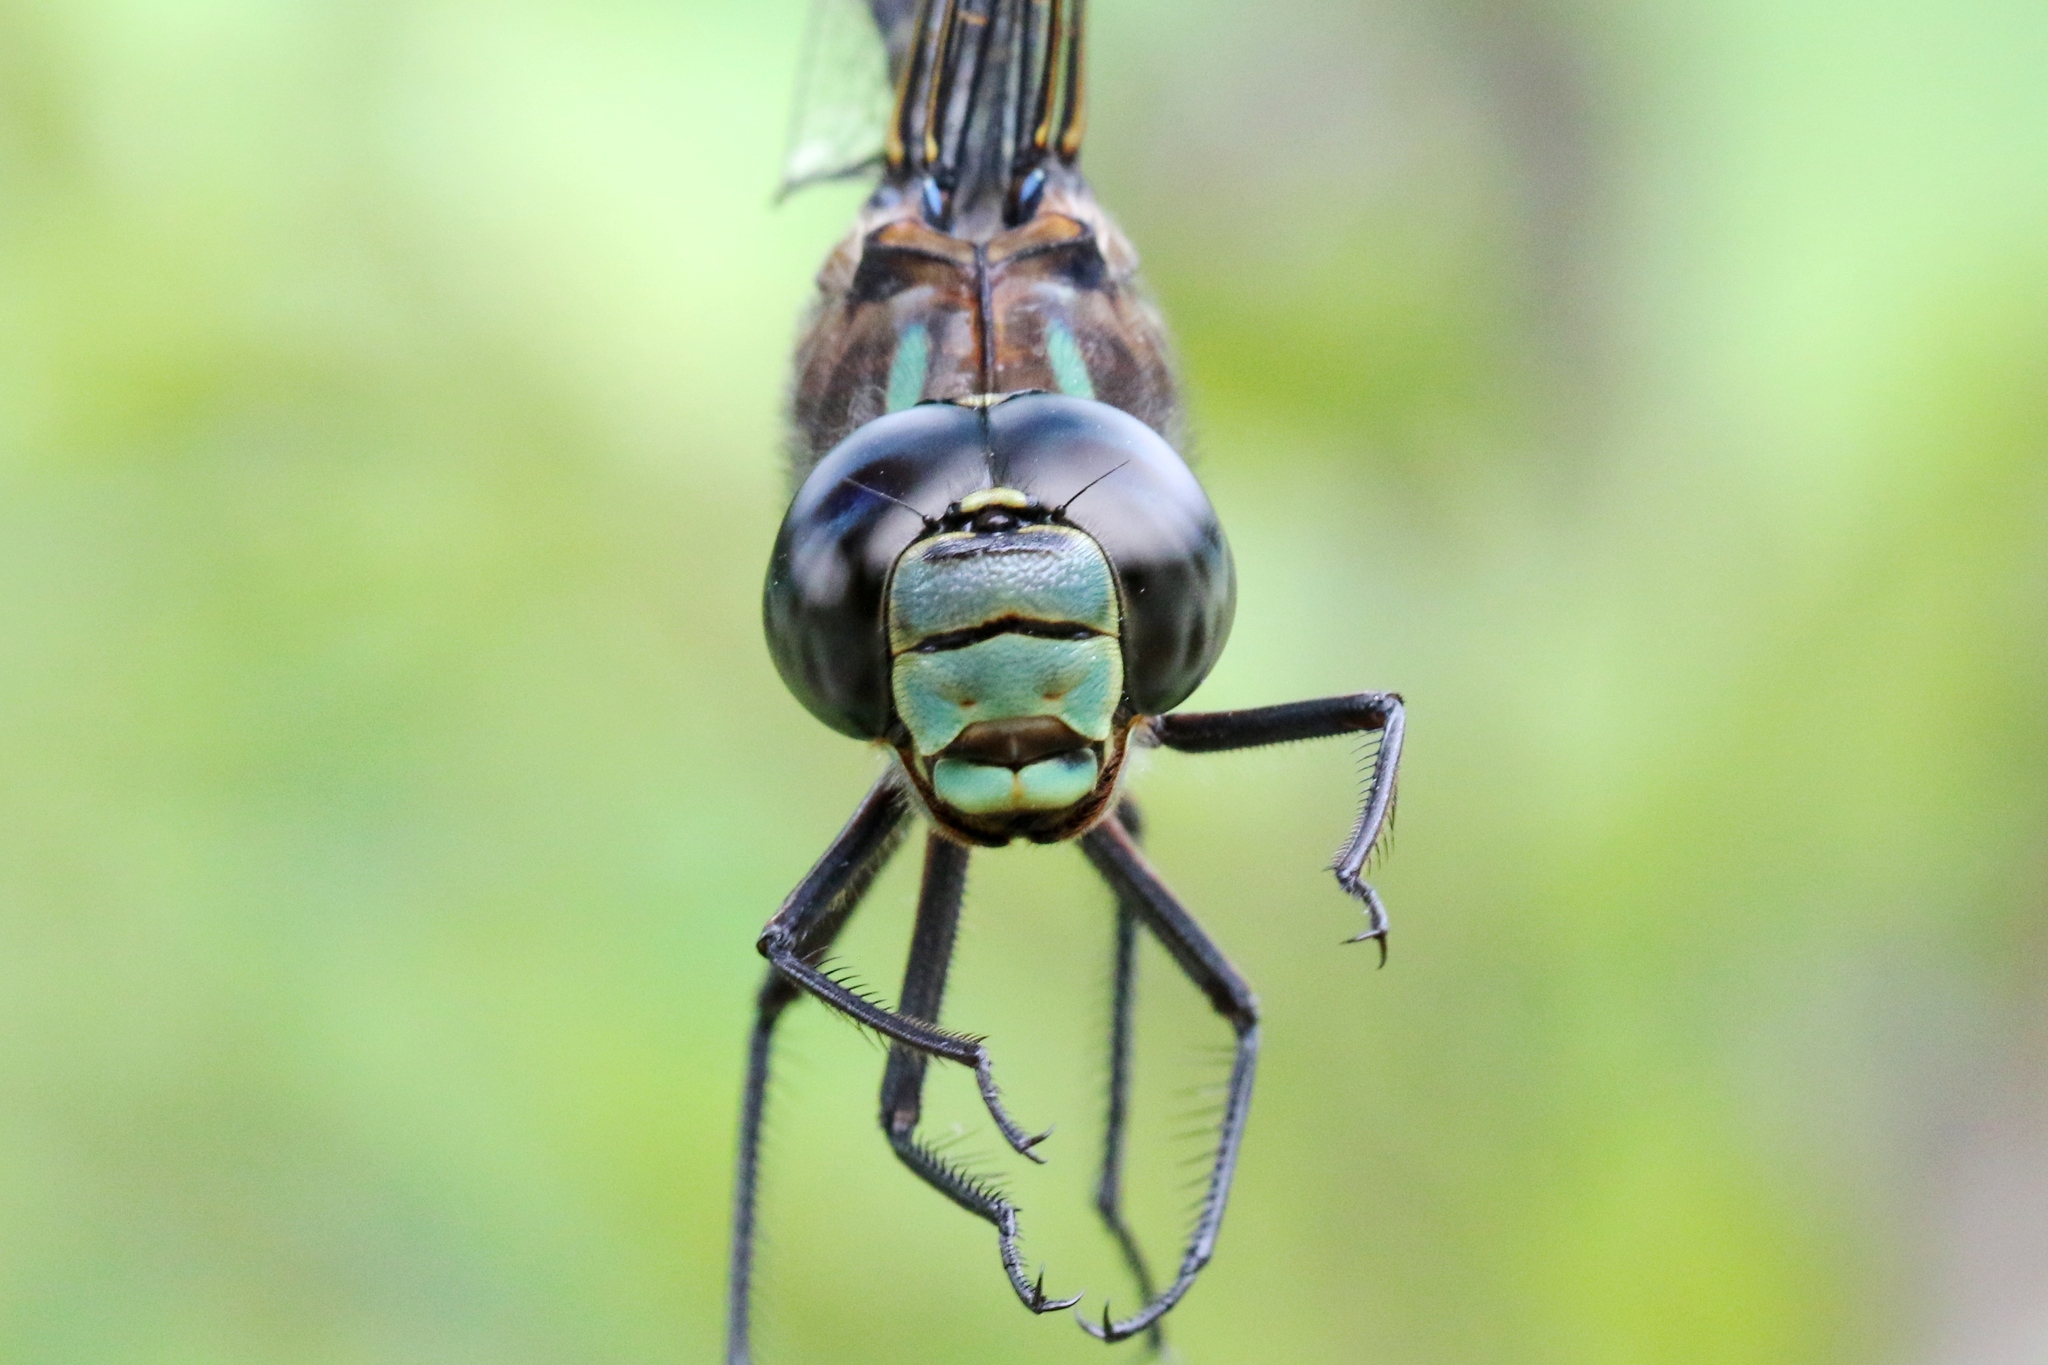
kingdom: Animalia
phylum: Arthropoda
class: Insecta
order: Odonata
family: Aeshnidae
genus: Aeshna
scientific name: Aeshna eremita
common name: Lake darner
